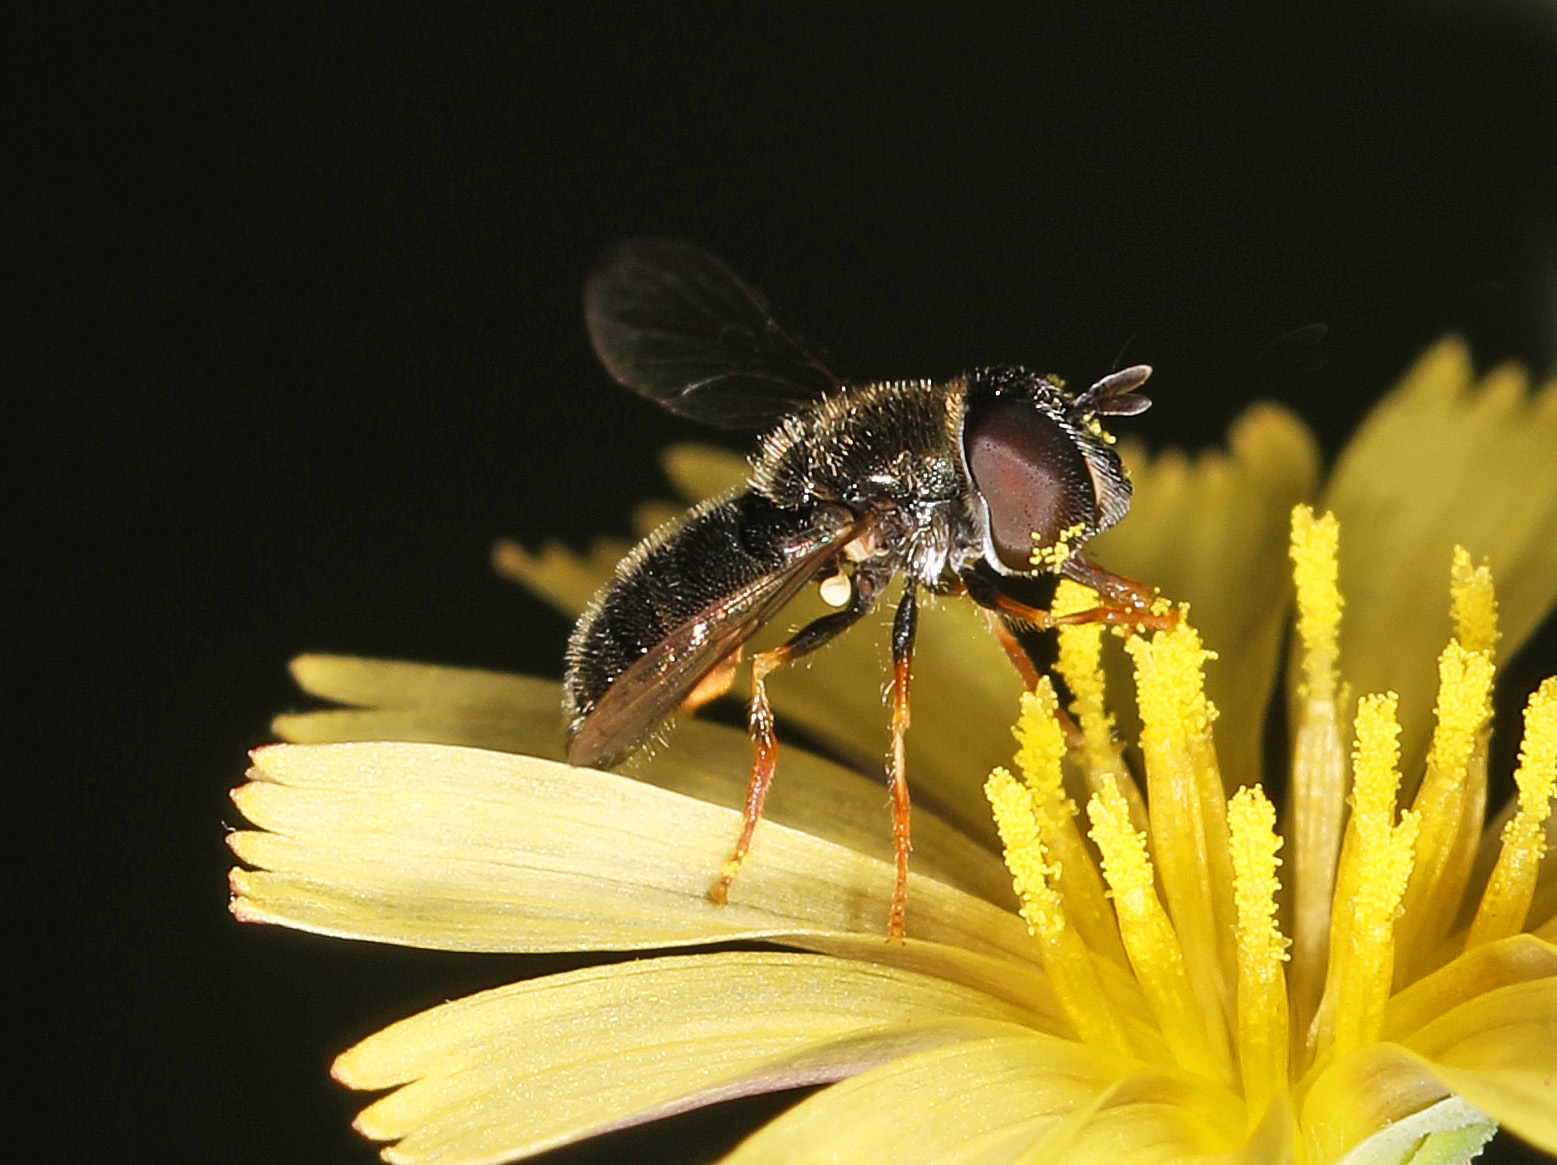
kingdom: Animalia
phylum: Arthropoda
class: Insecta
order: Diptera
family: Syrphidae
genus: Paragus
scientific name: Paragus haemorrhous
